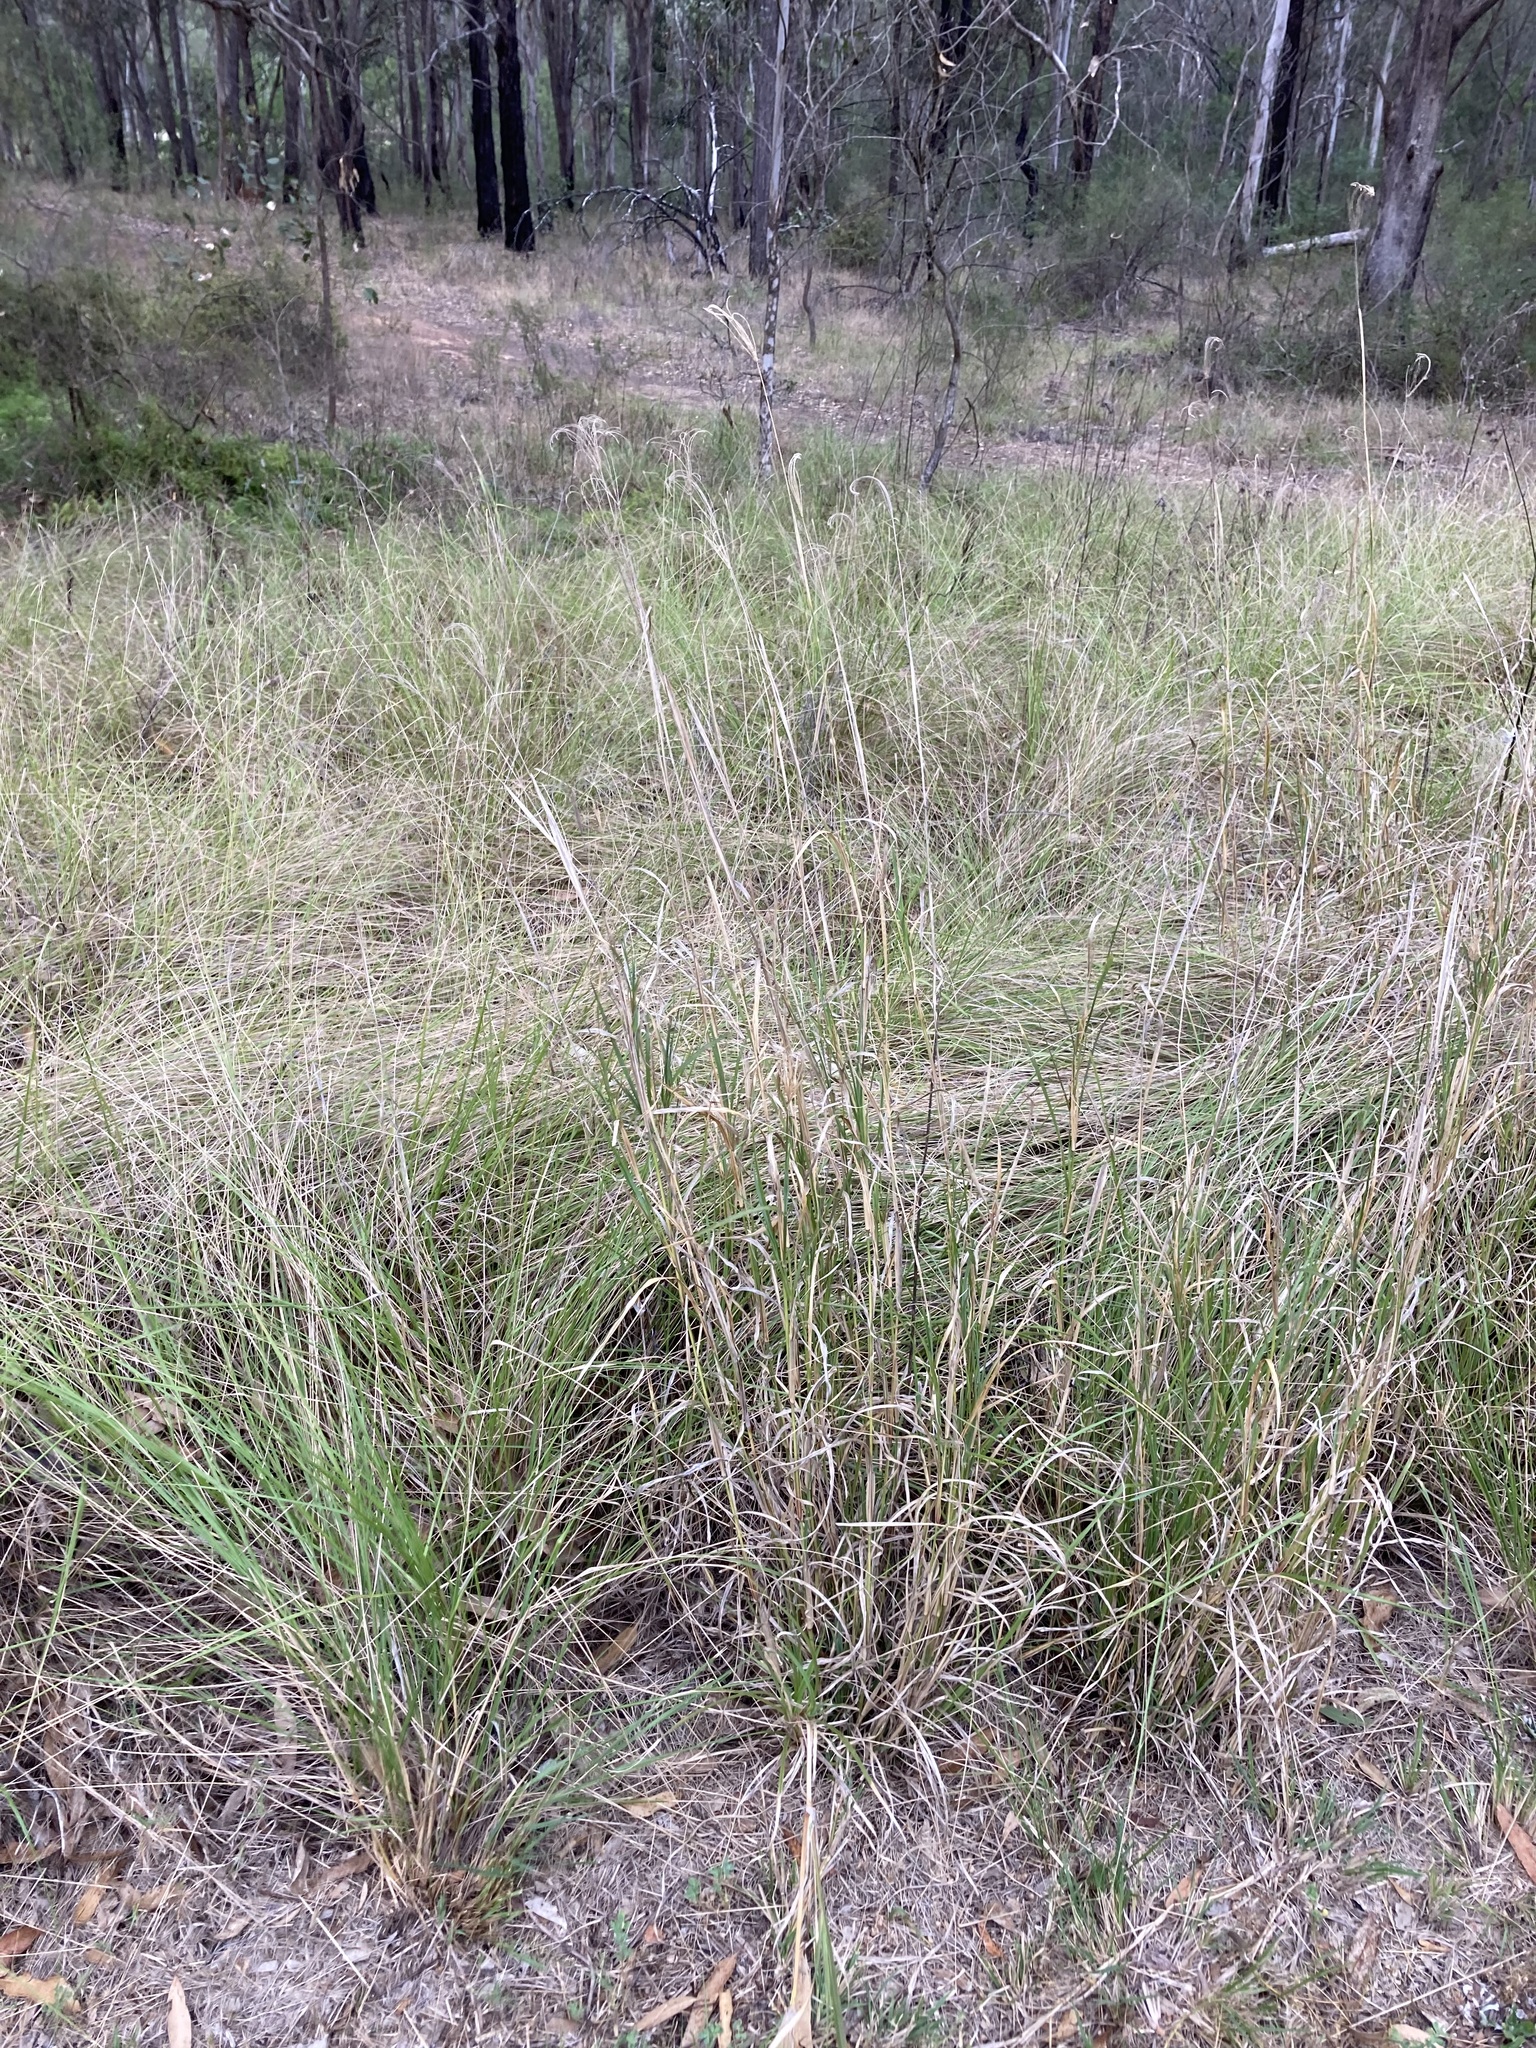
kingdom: Plantae
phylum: Tracheophyta
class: Liliopsida
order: Poales
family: Poaceae
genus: Chloris
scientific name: Chloris gayana
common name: Rhodes grass
